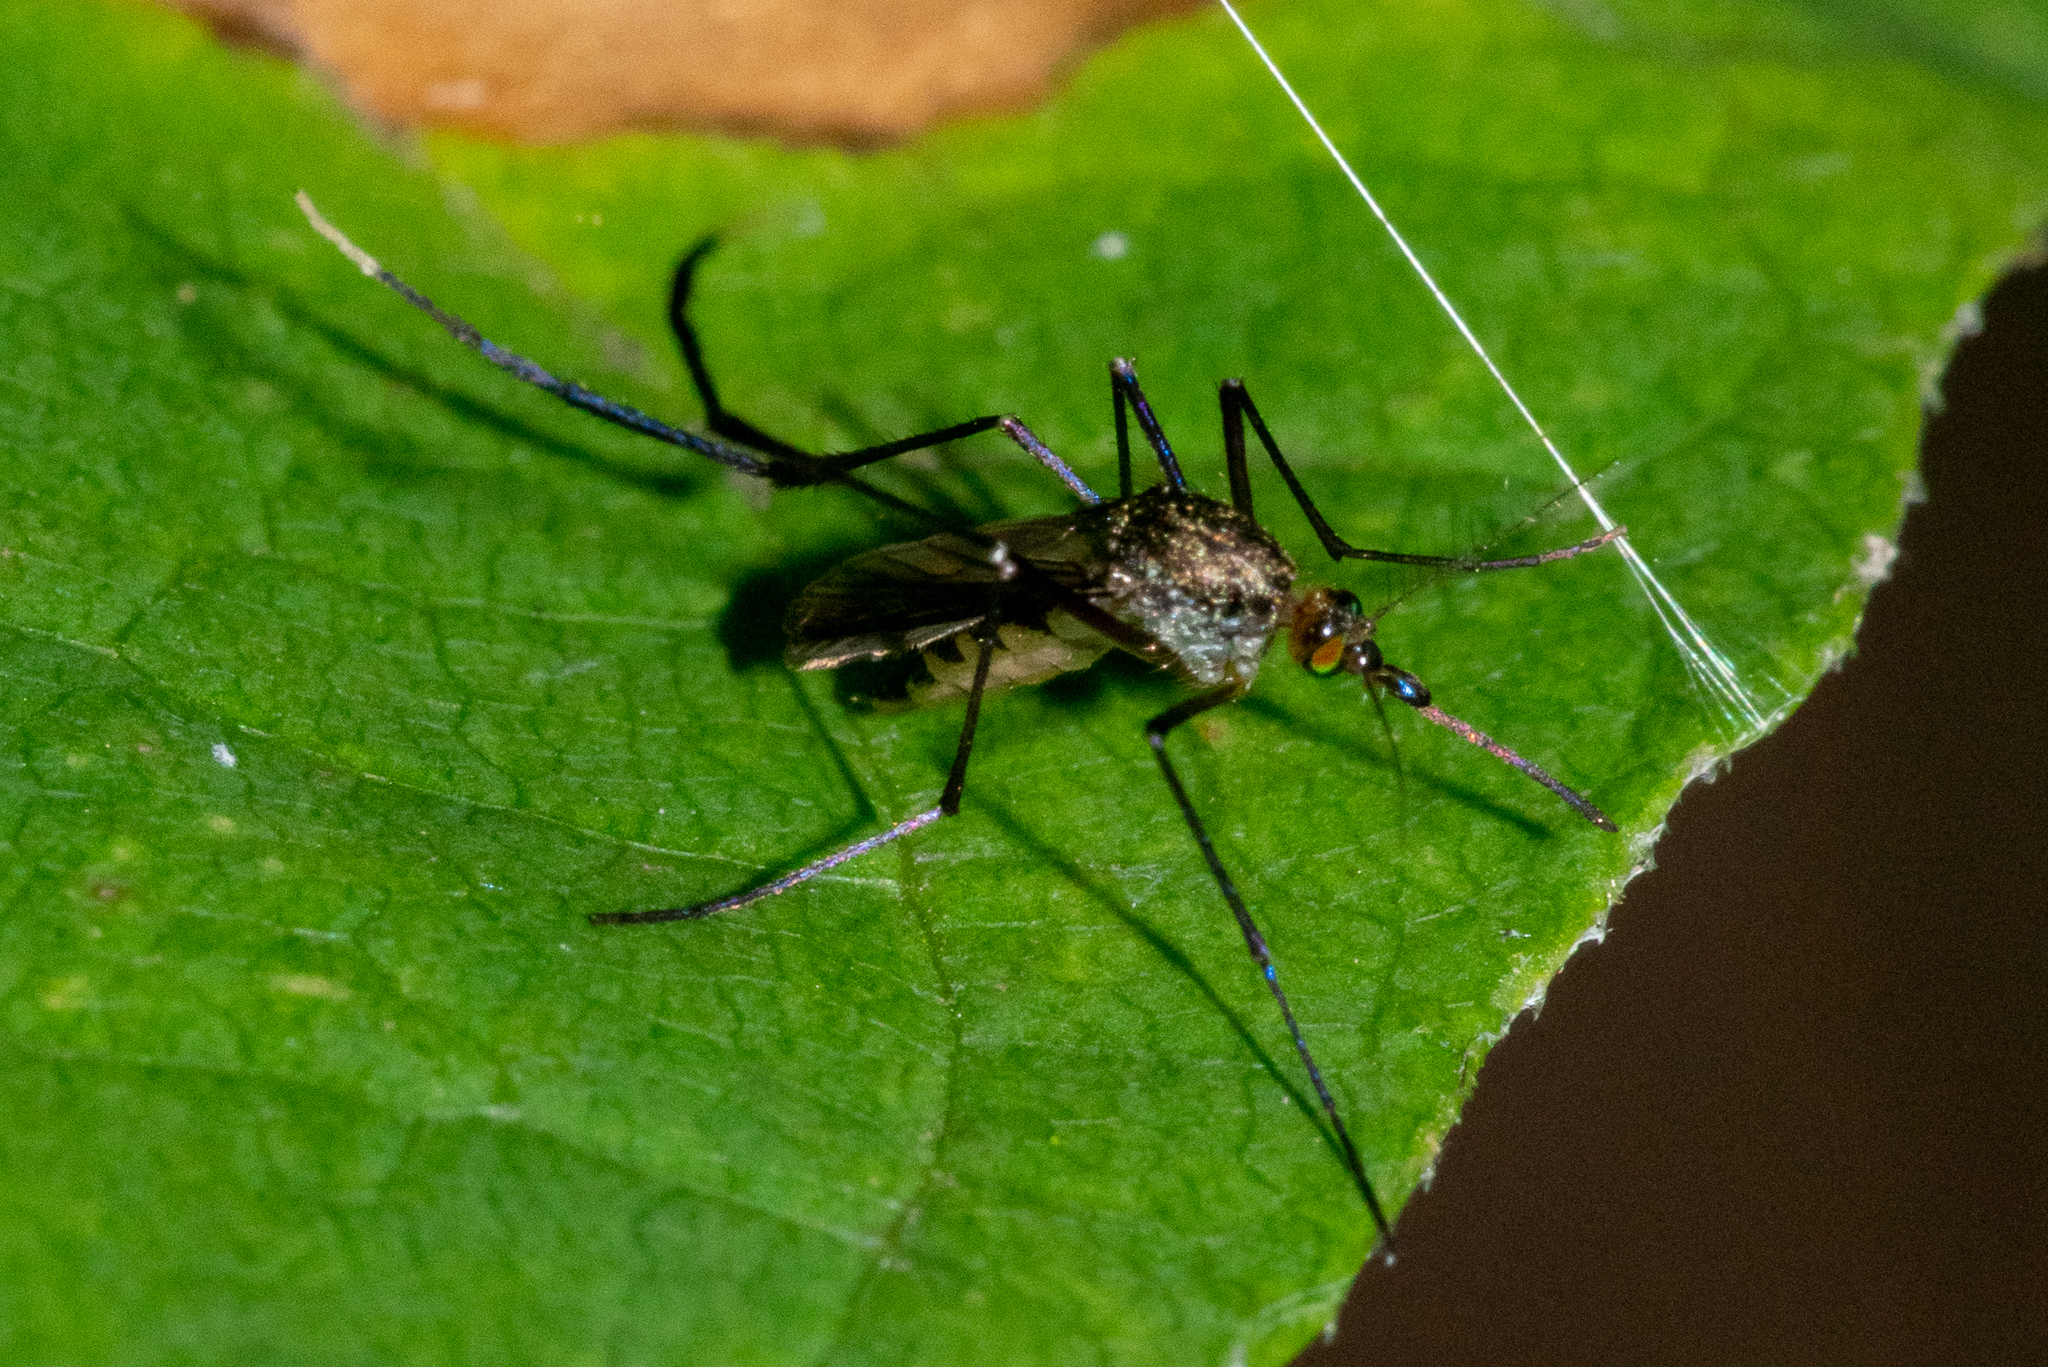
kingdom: Animalia
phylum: Arthropoda
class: Insecta
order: Diptera
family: Culicidae
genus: Psorophora
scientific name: Psorophora ferox
